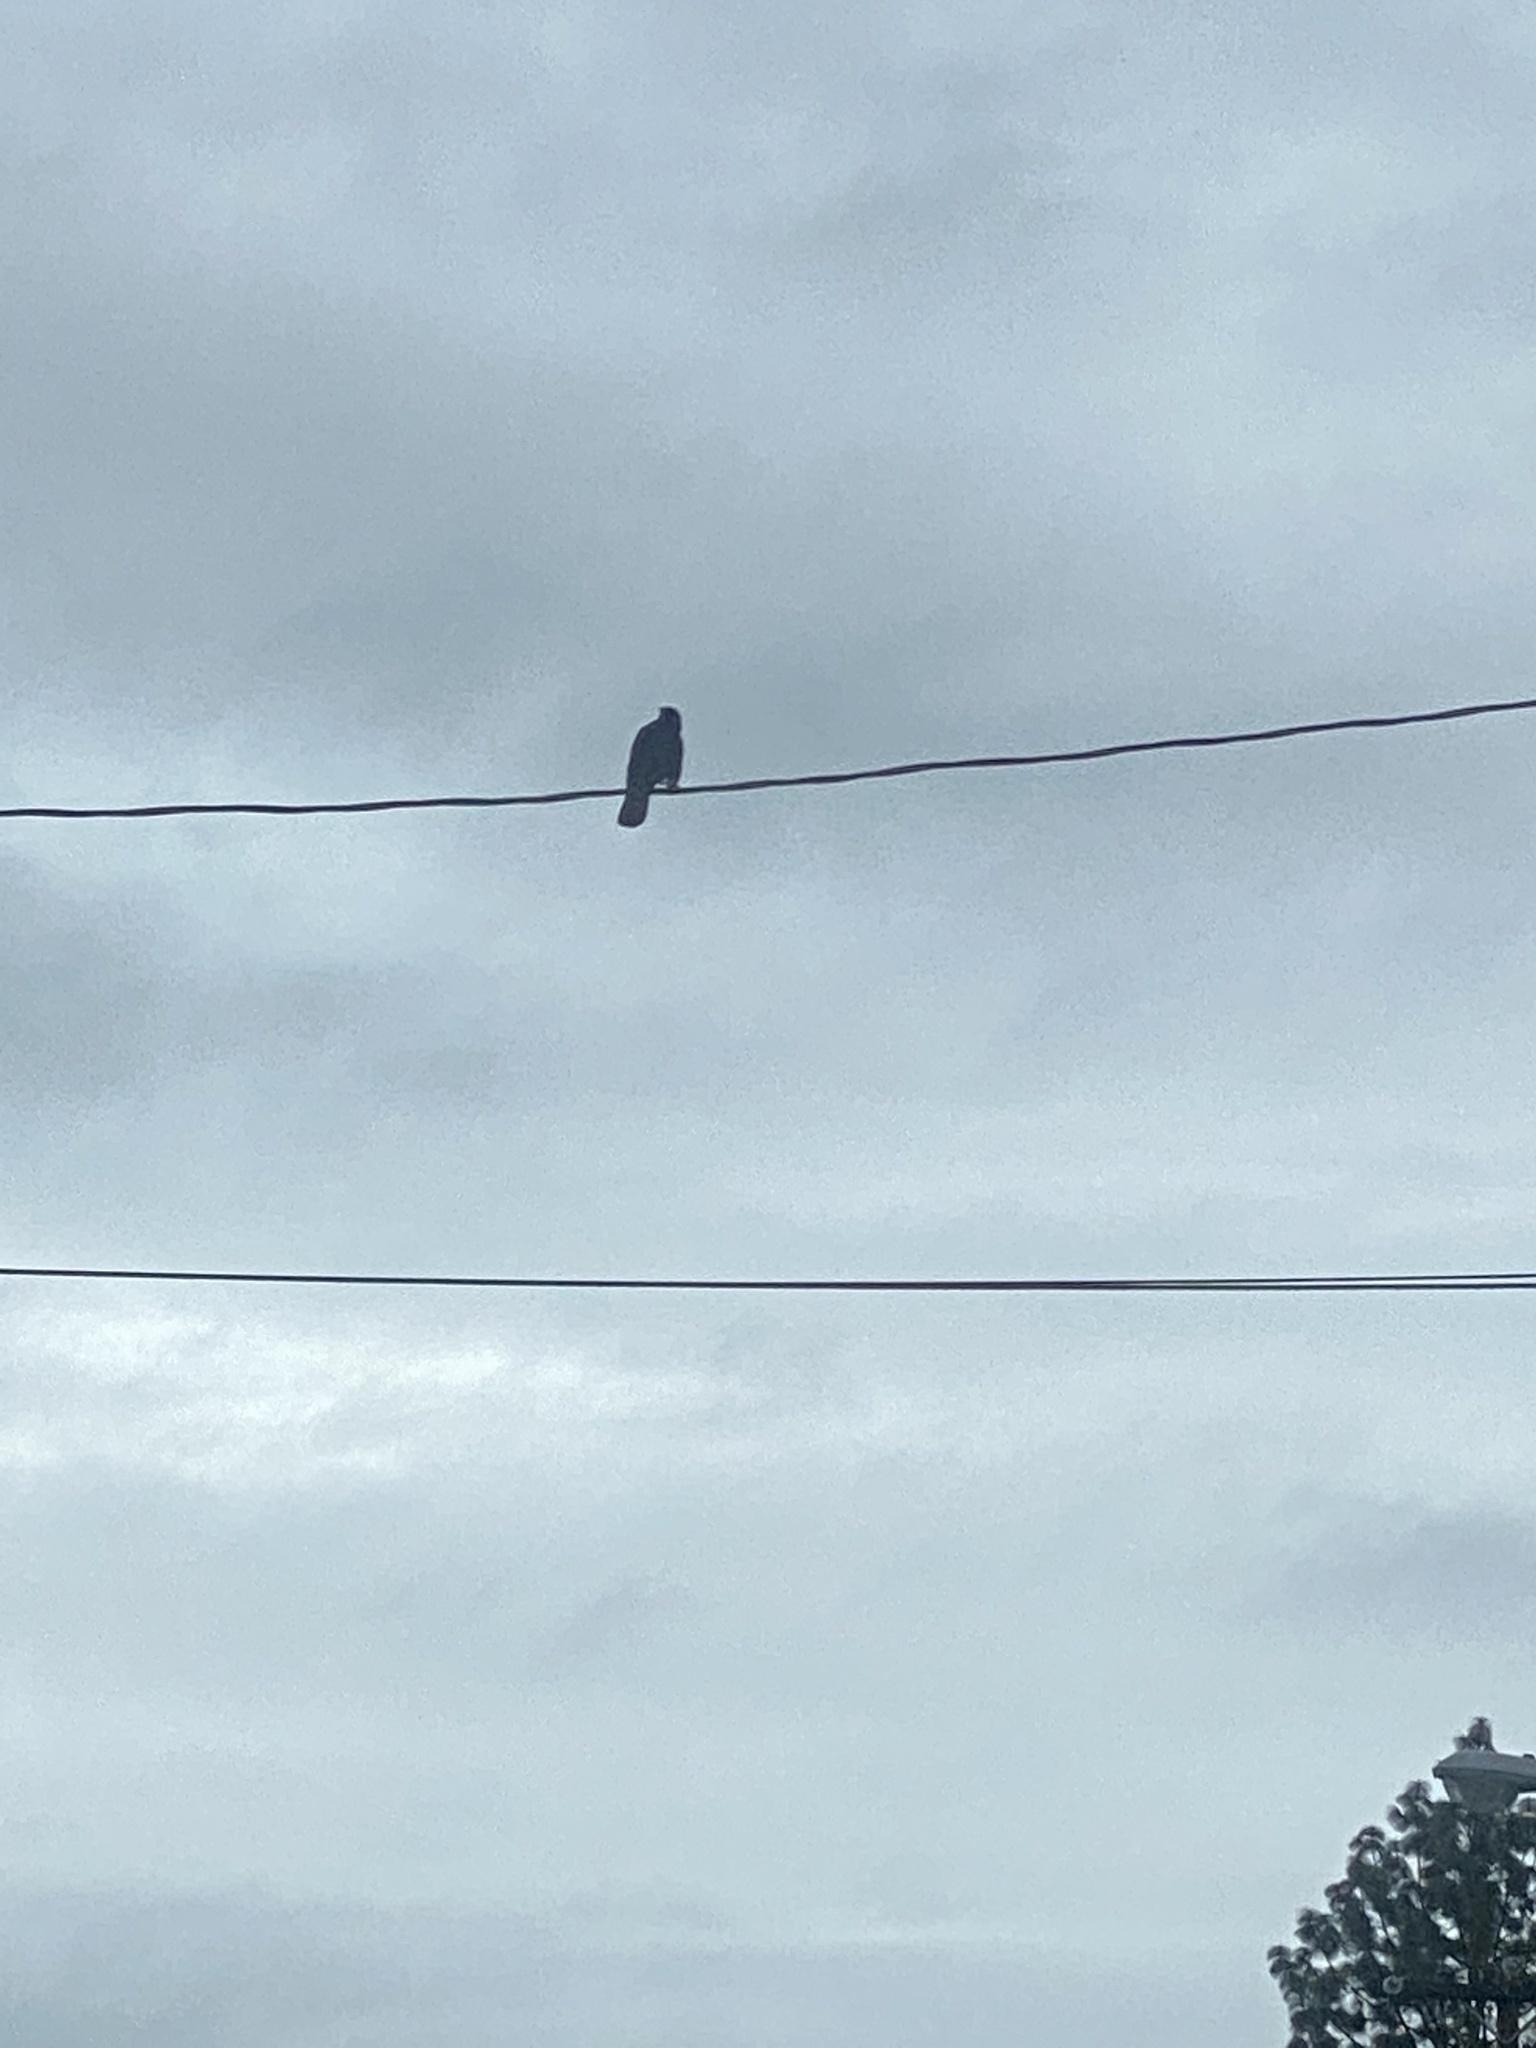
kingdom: Animalia
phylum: Chordata
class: Aves
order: Passeriformes
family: Corvidae
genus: Corvus
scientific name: Corvus brachyrhynchos
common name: American crow
